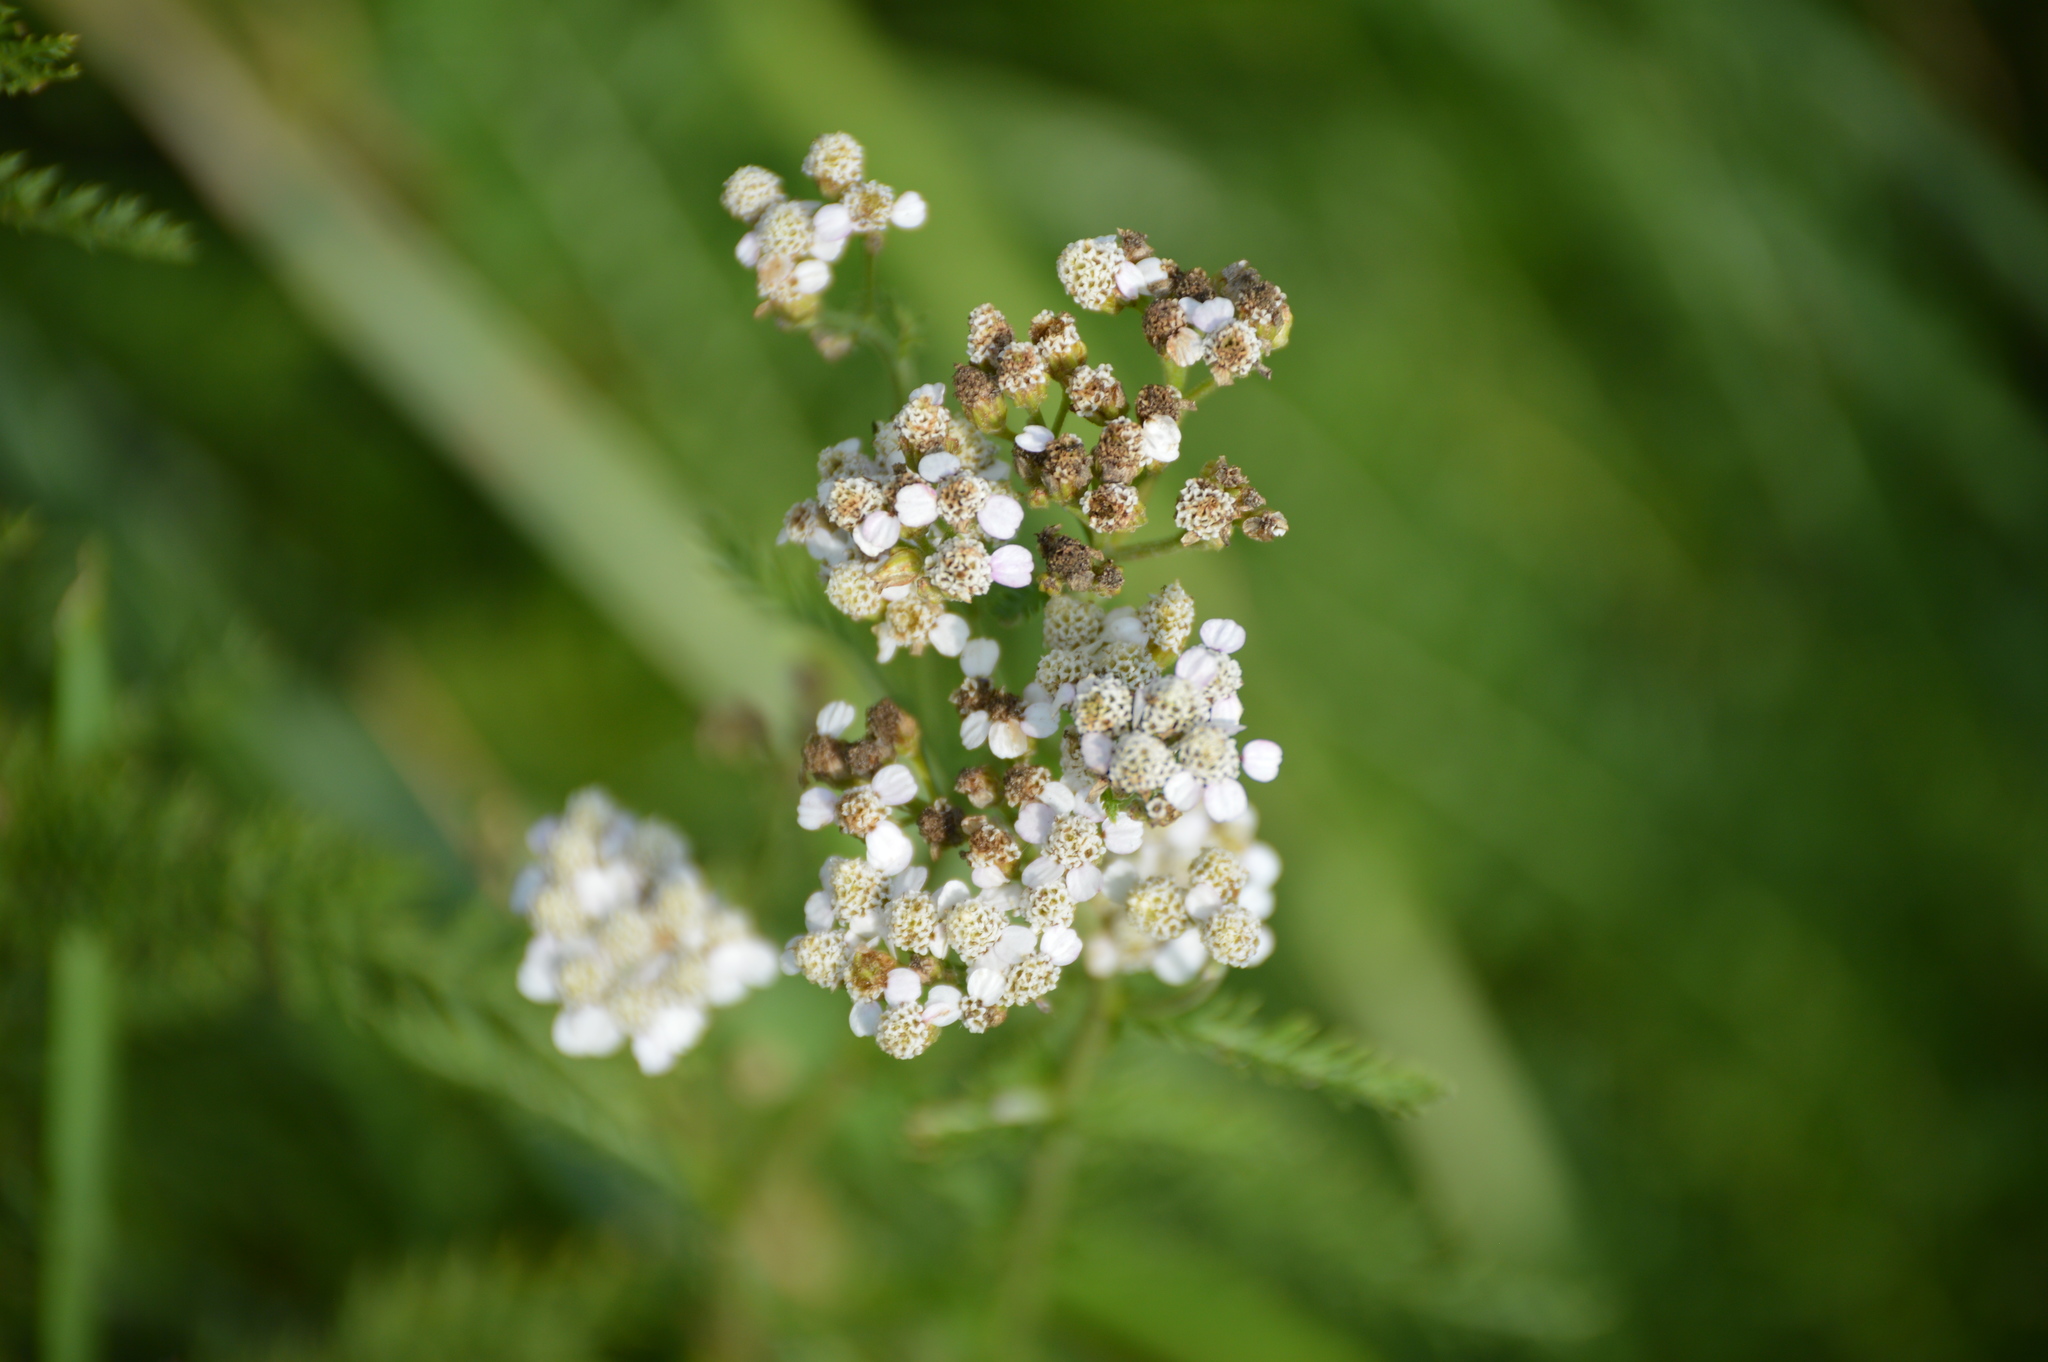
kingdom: Plantae
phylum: Tracheophyta
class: Magnoliopsida
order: Asterales
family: Asteraceae
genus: Achillea
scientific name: Achillea millefolium
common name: Yarrow
